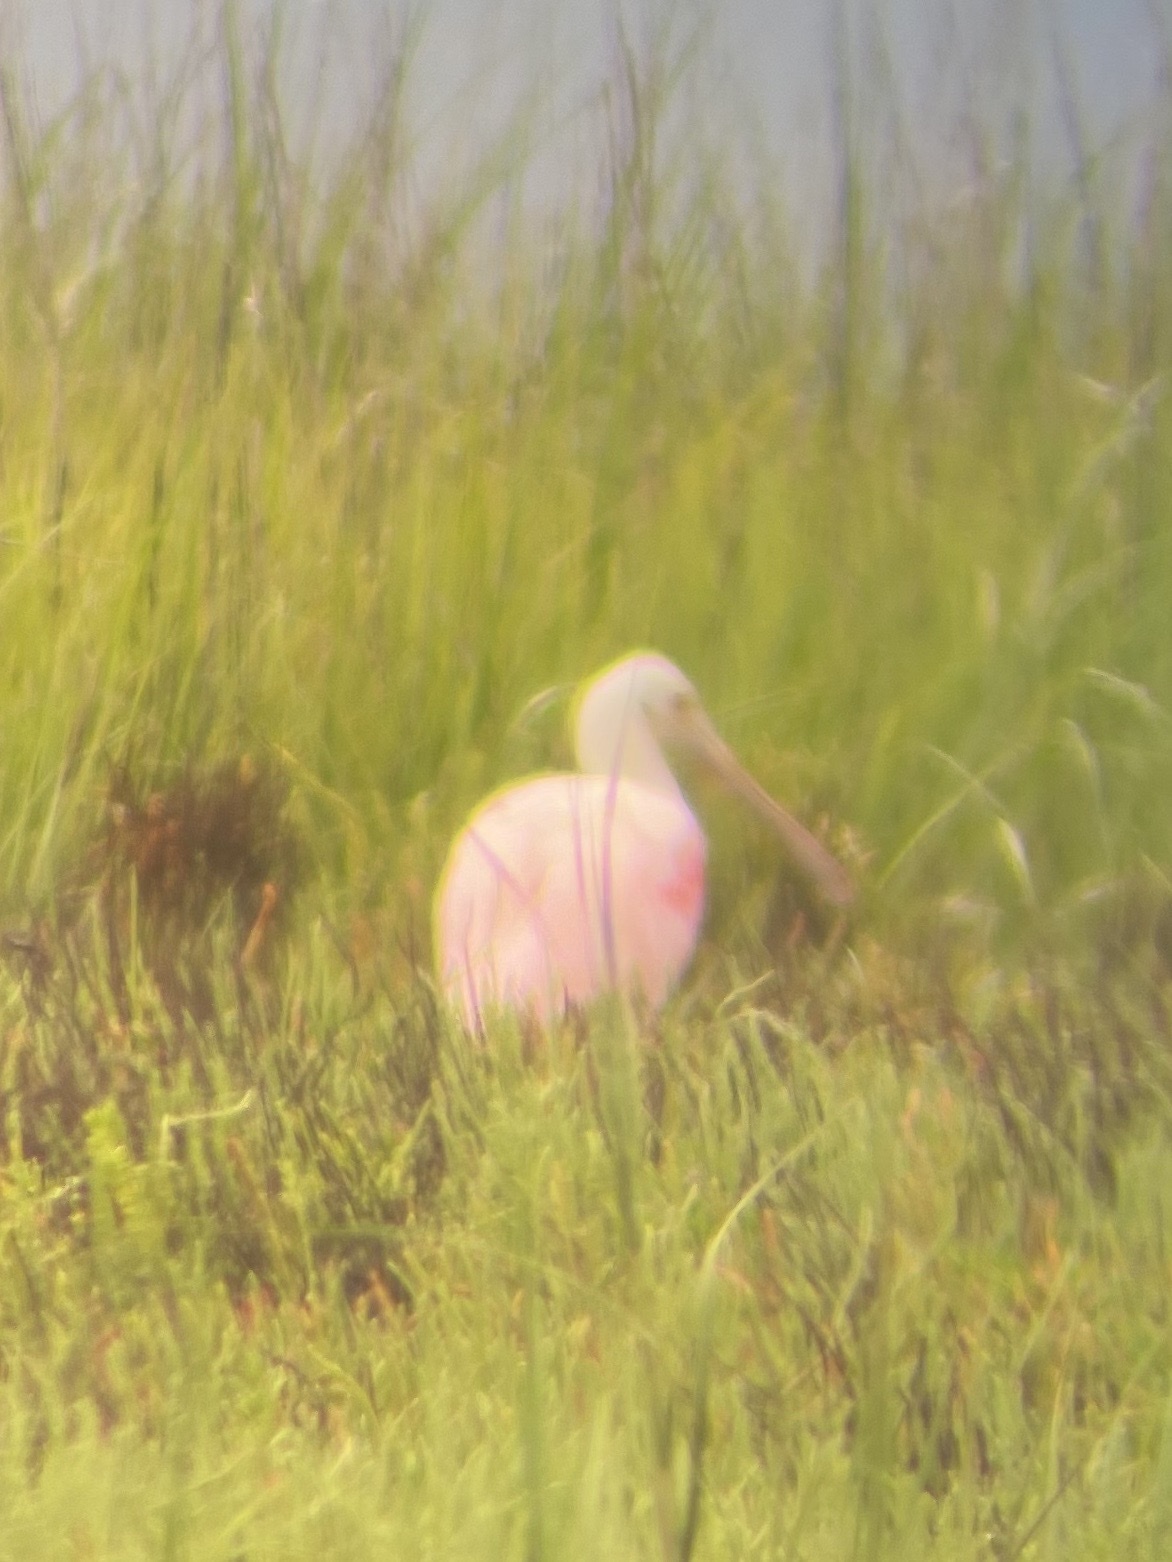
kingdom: Animalia
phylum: Chordata
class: Aves
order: Pelecaniformes
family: Threskiornithidae
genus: Platalea
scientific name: Platalea ajaja
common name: Roseate spoonbill
